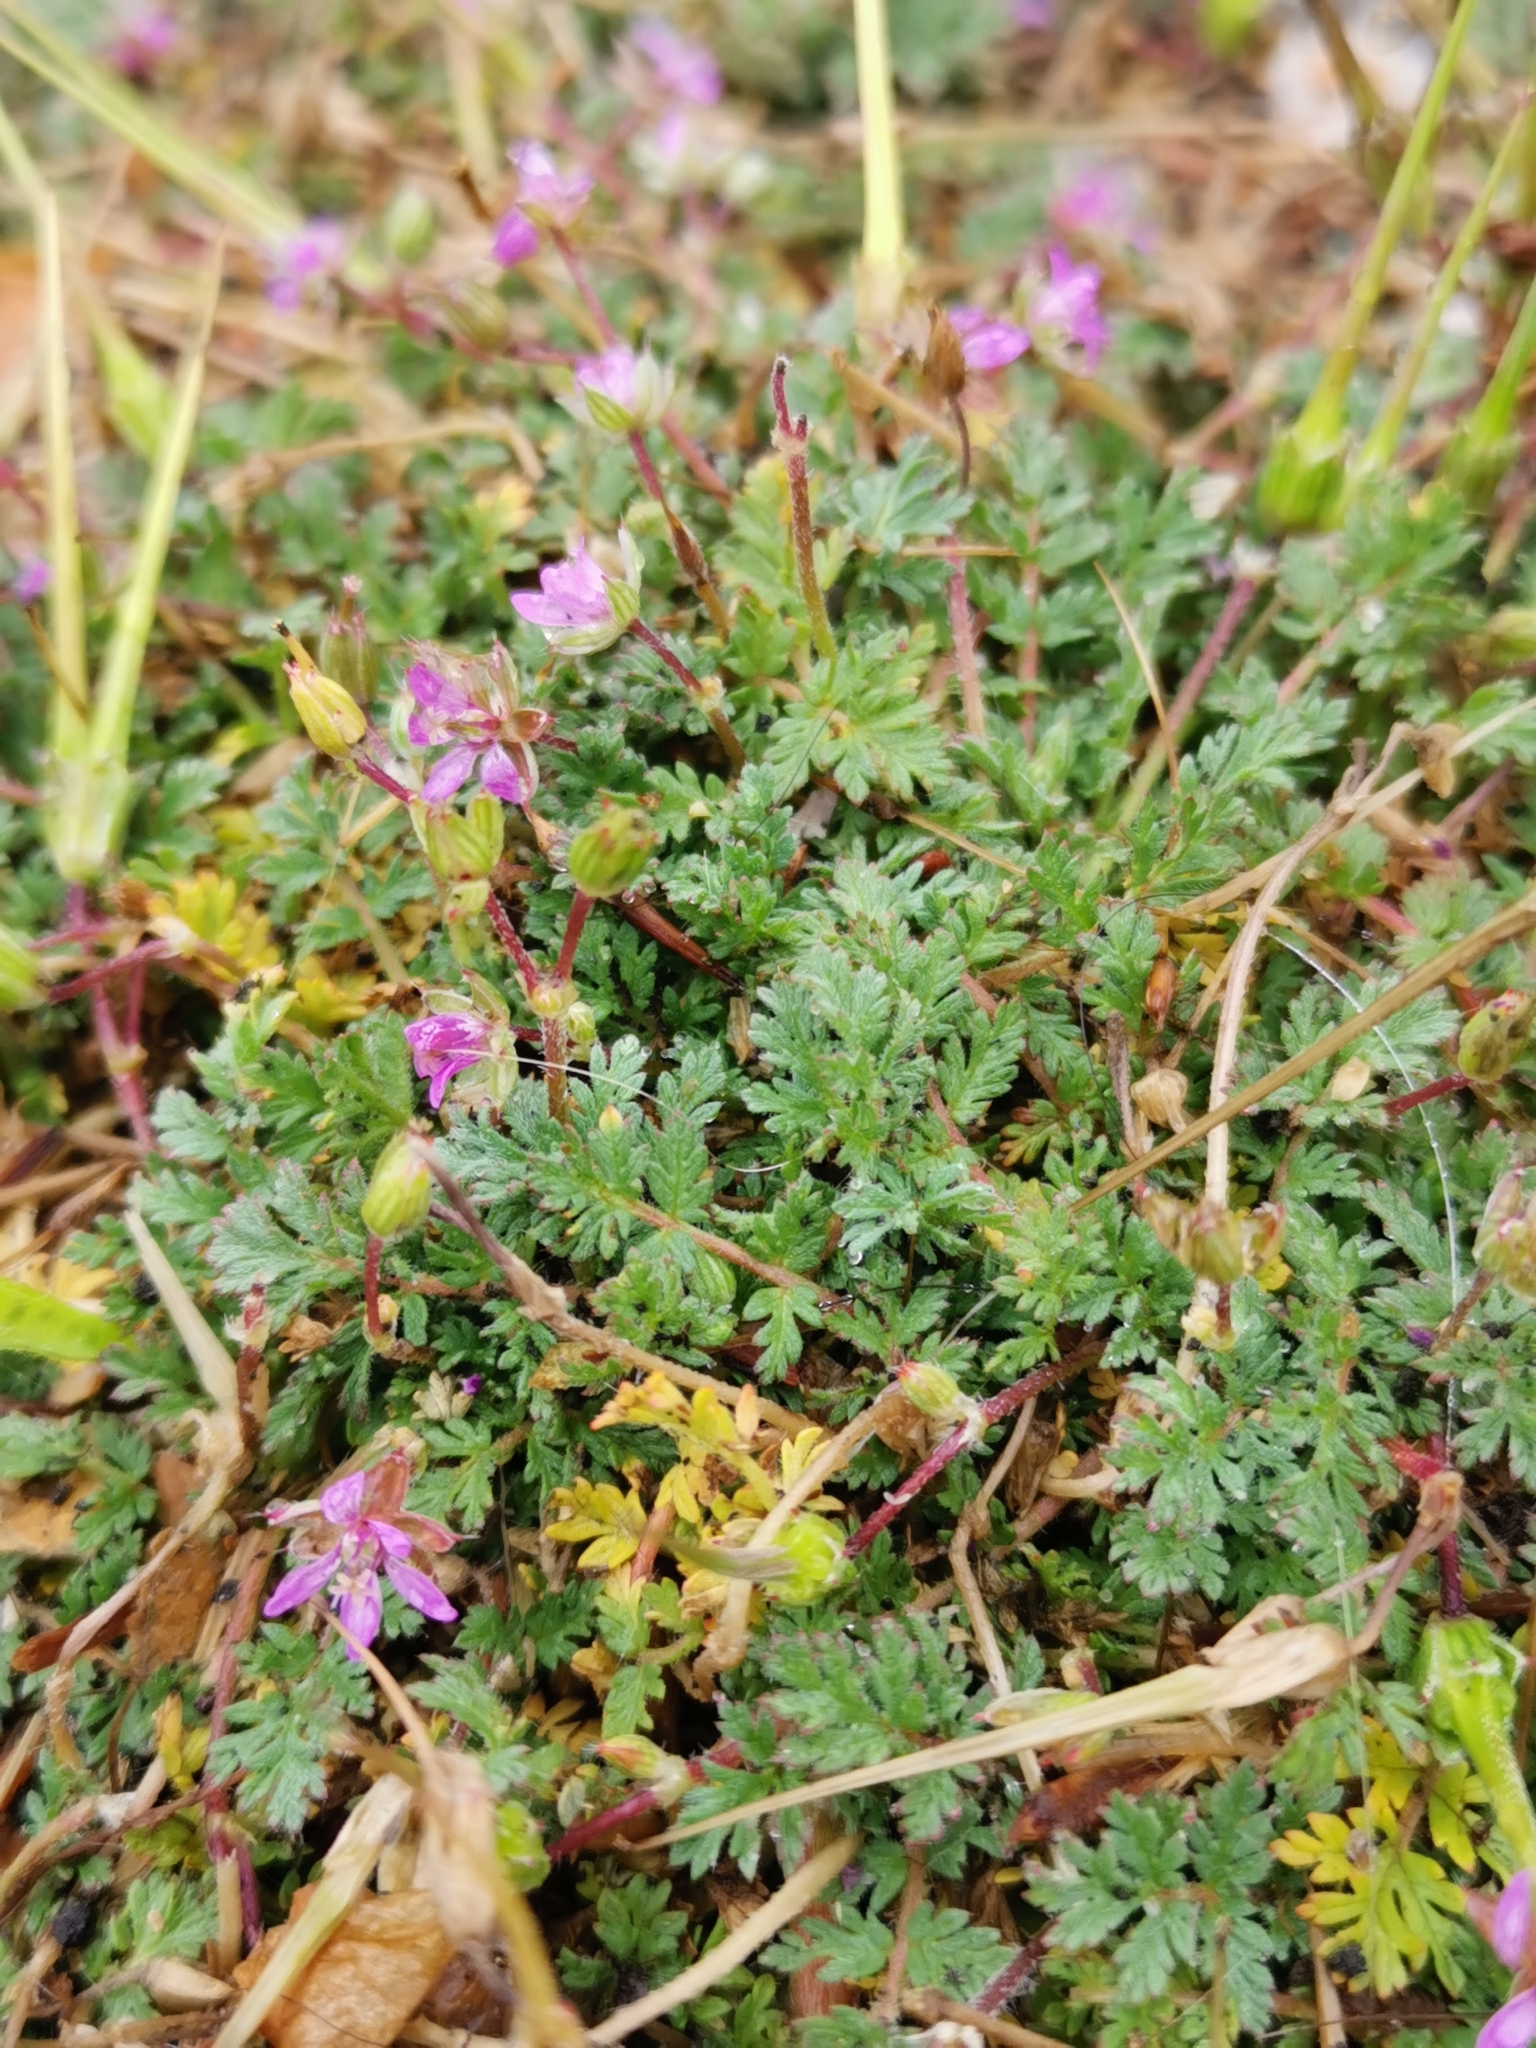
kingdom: Plantae
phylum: Tracheophyta
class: Magnoliopsida
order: Geraniales
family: Geraniaceae
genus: Erodium
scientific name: Erodium cicutarium
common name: Common stork's-bill
